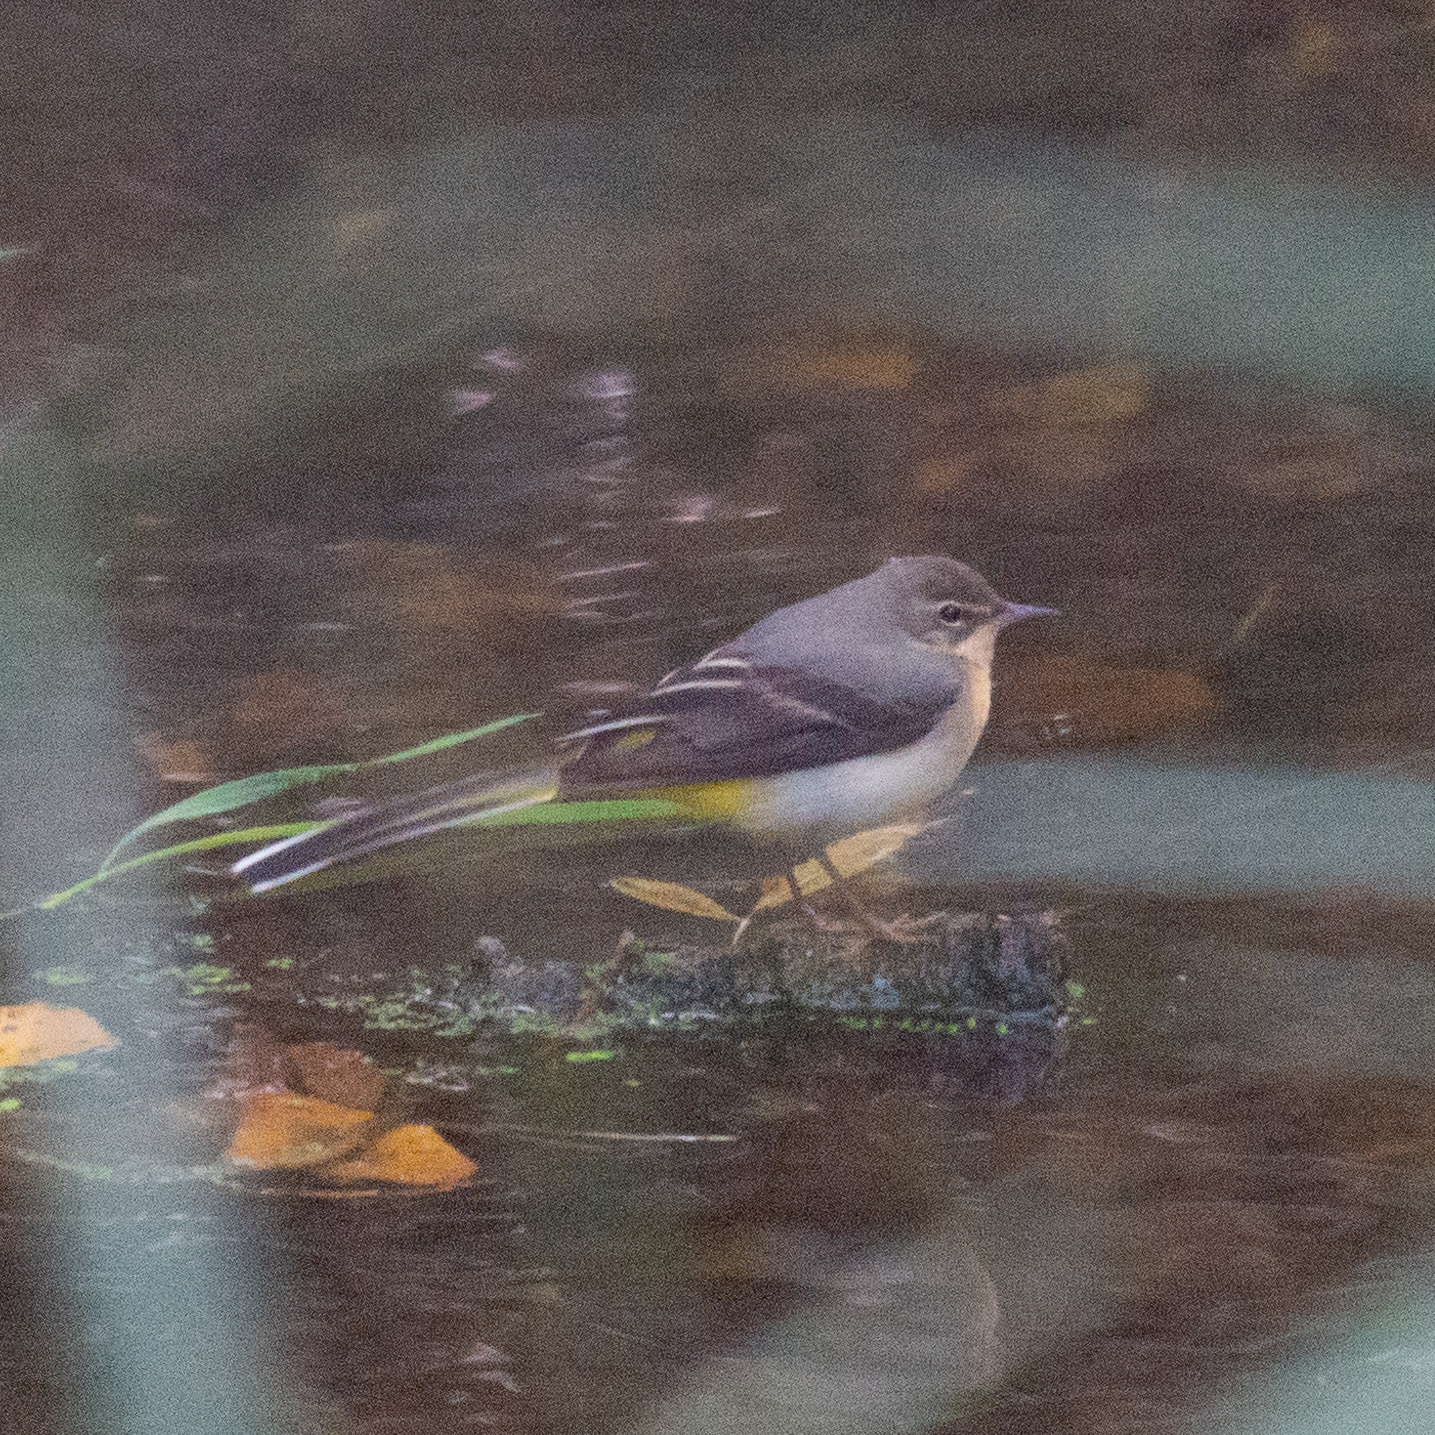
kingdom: Animalia
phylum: Chordata
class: Aves
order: Passeriformes
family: Motacillidae
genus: Motacilla
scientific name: Motacilla cinerea
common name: Grey wagtail
